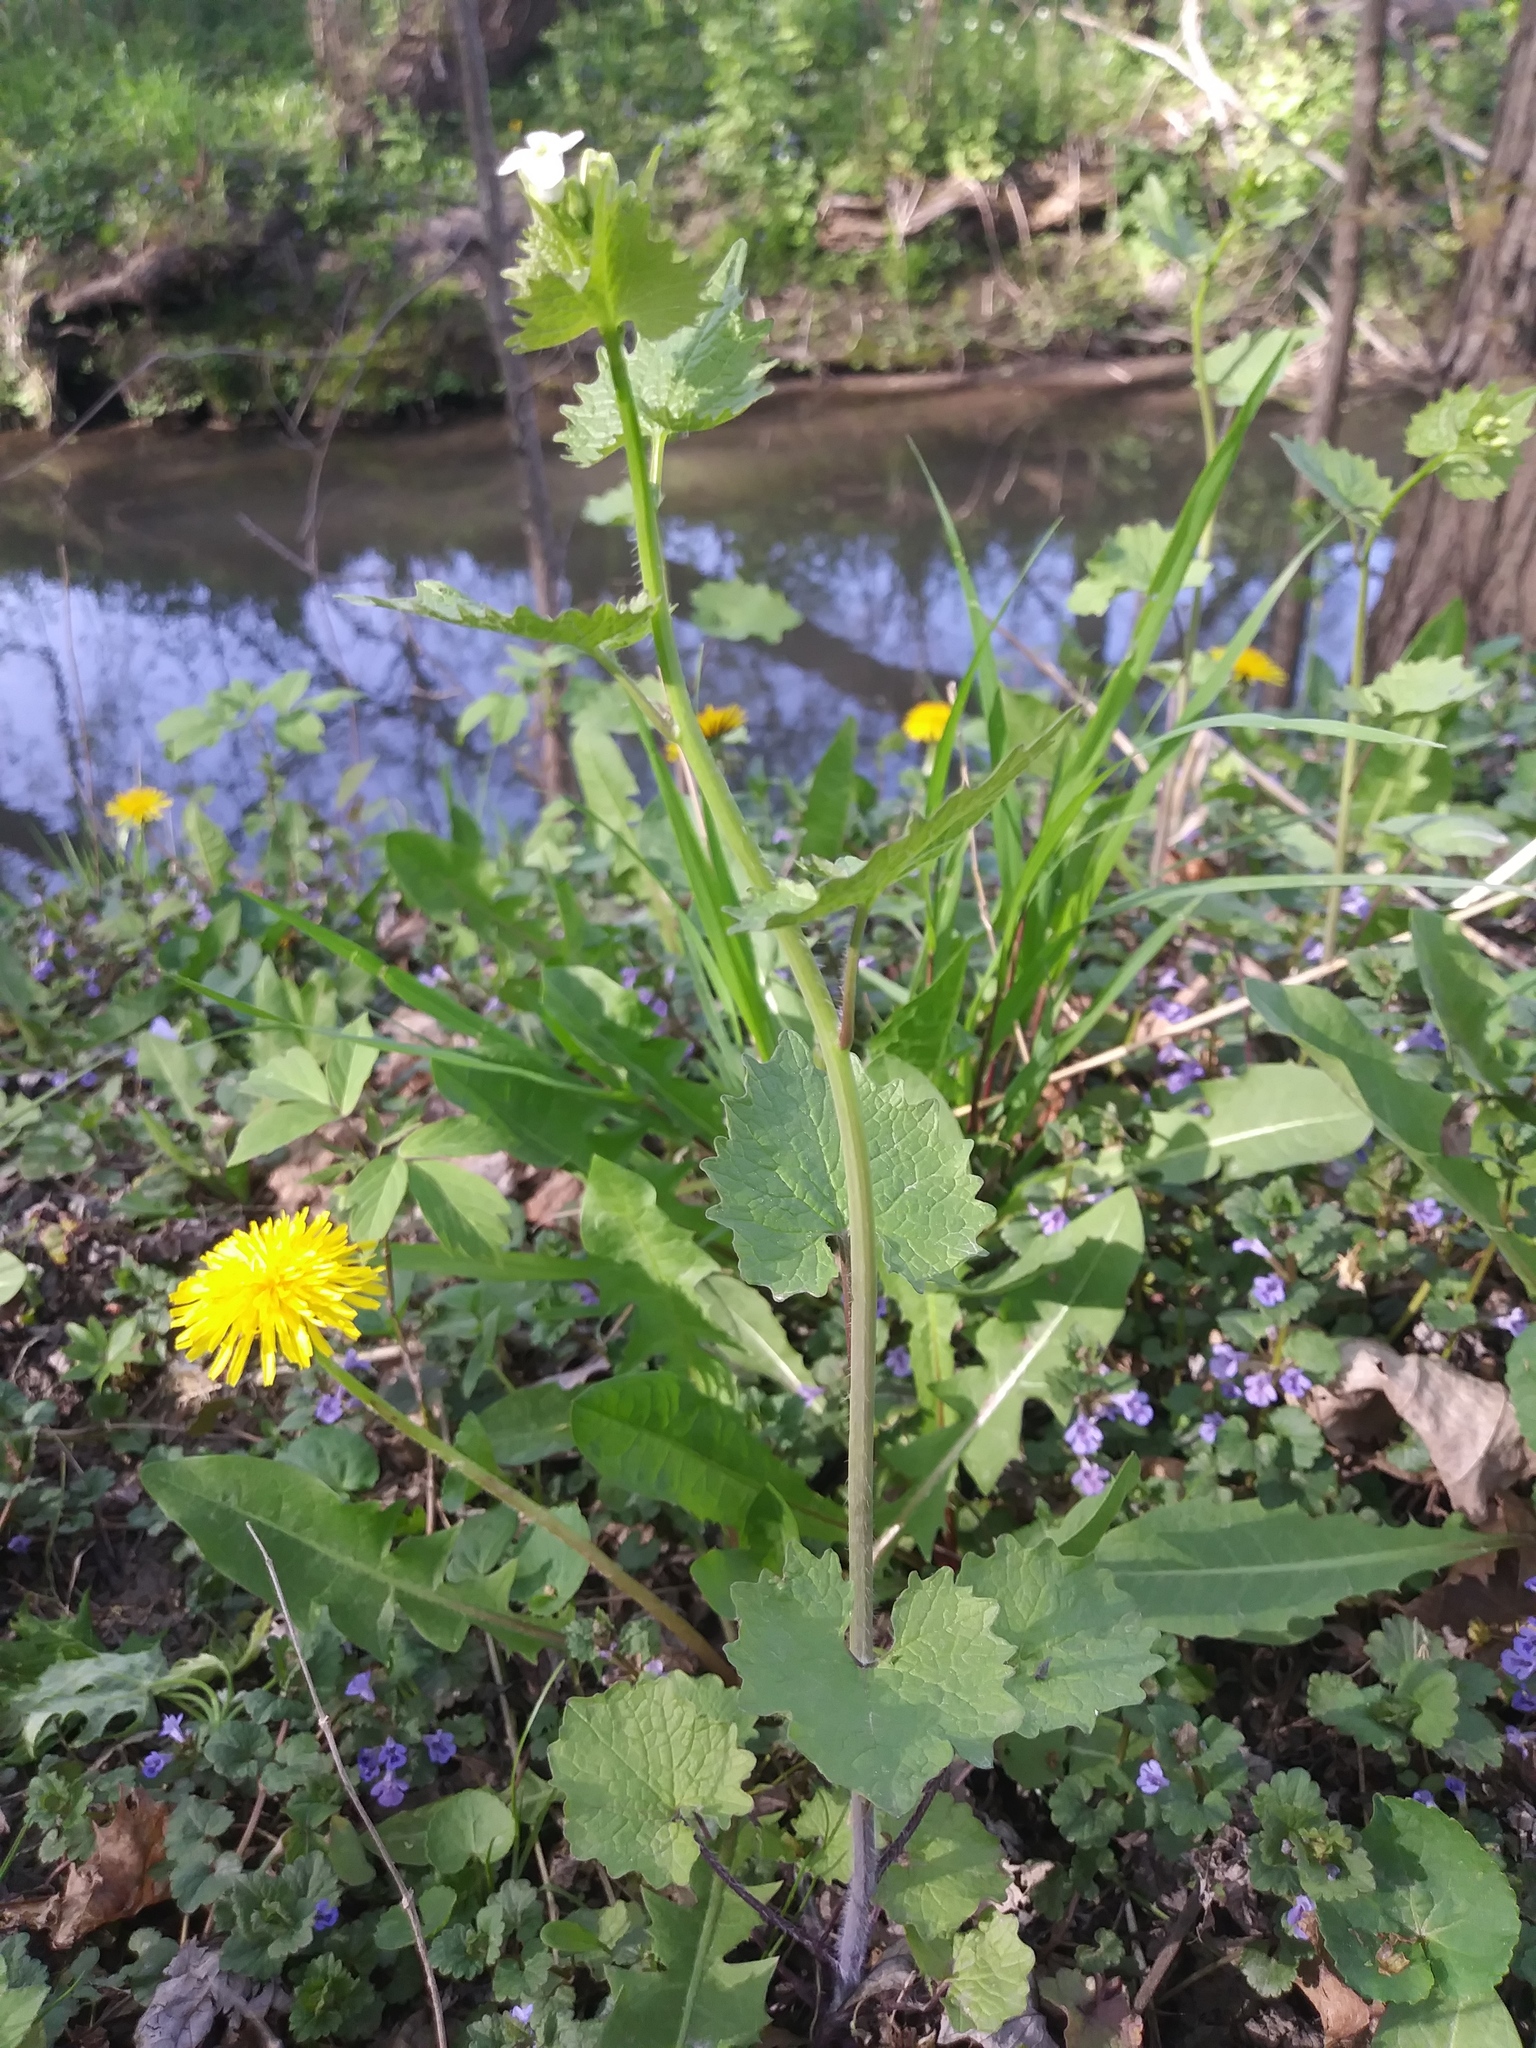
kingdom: Plantae
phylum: Tracheophyta
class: Magnoliopsida
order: Brassicales
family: Brassicaceae
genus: Alliaria
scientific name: Alliaria petiolata
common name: Garlic mustard
